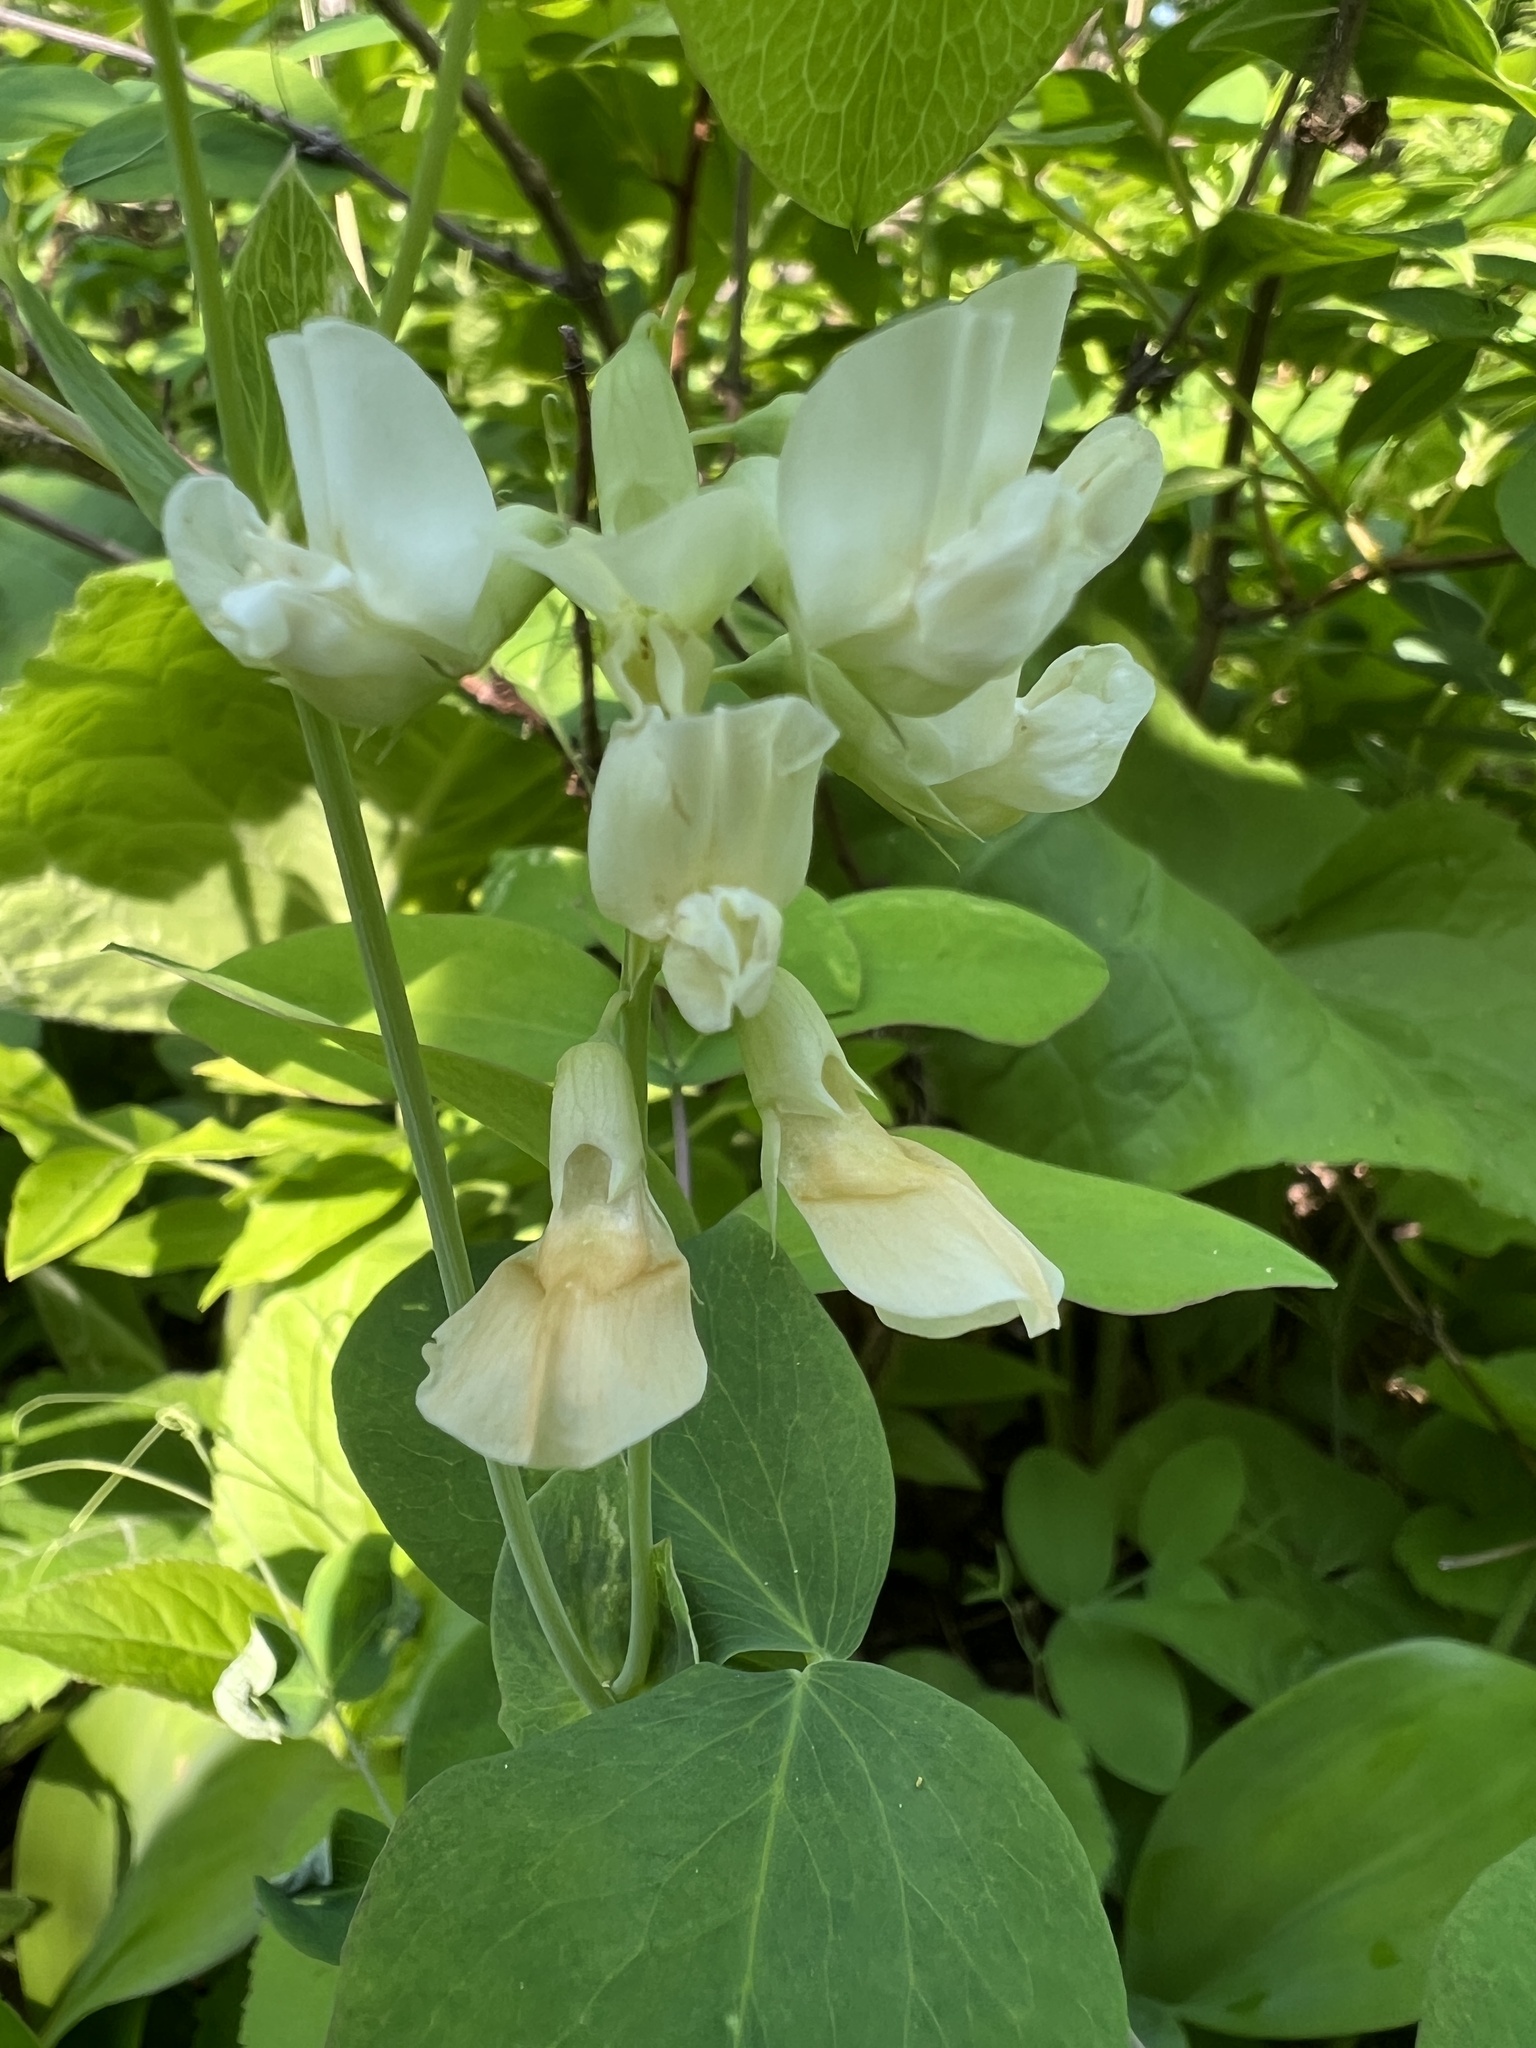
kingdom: Plantae
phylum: Tracheophyta
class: Magnoliopsida
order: Fabales
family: Fabaceae
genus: Lathyrus
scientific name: Lathyrus ochroleucus
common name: Pale vetchling
